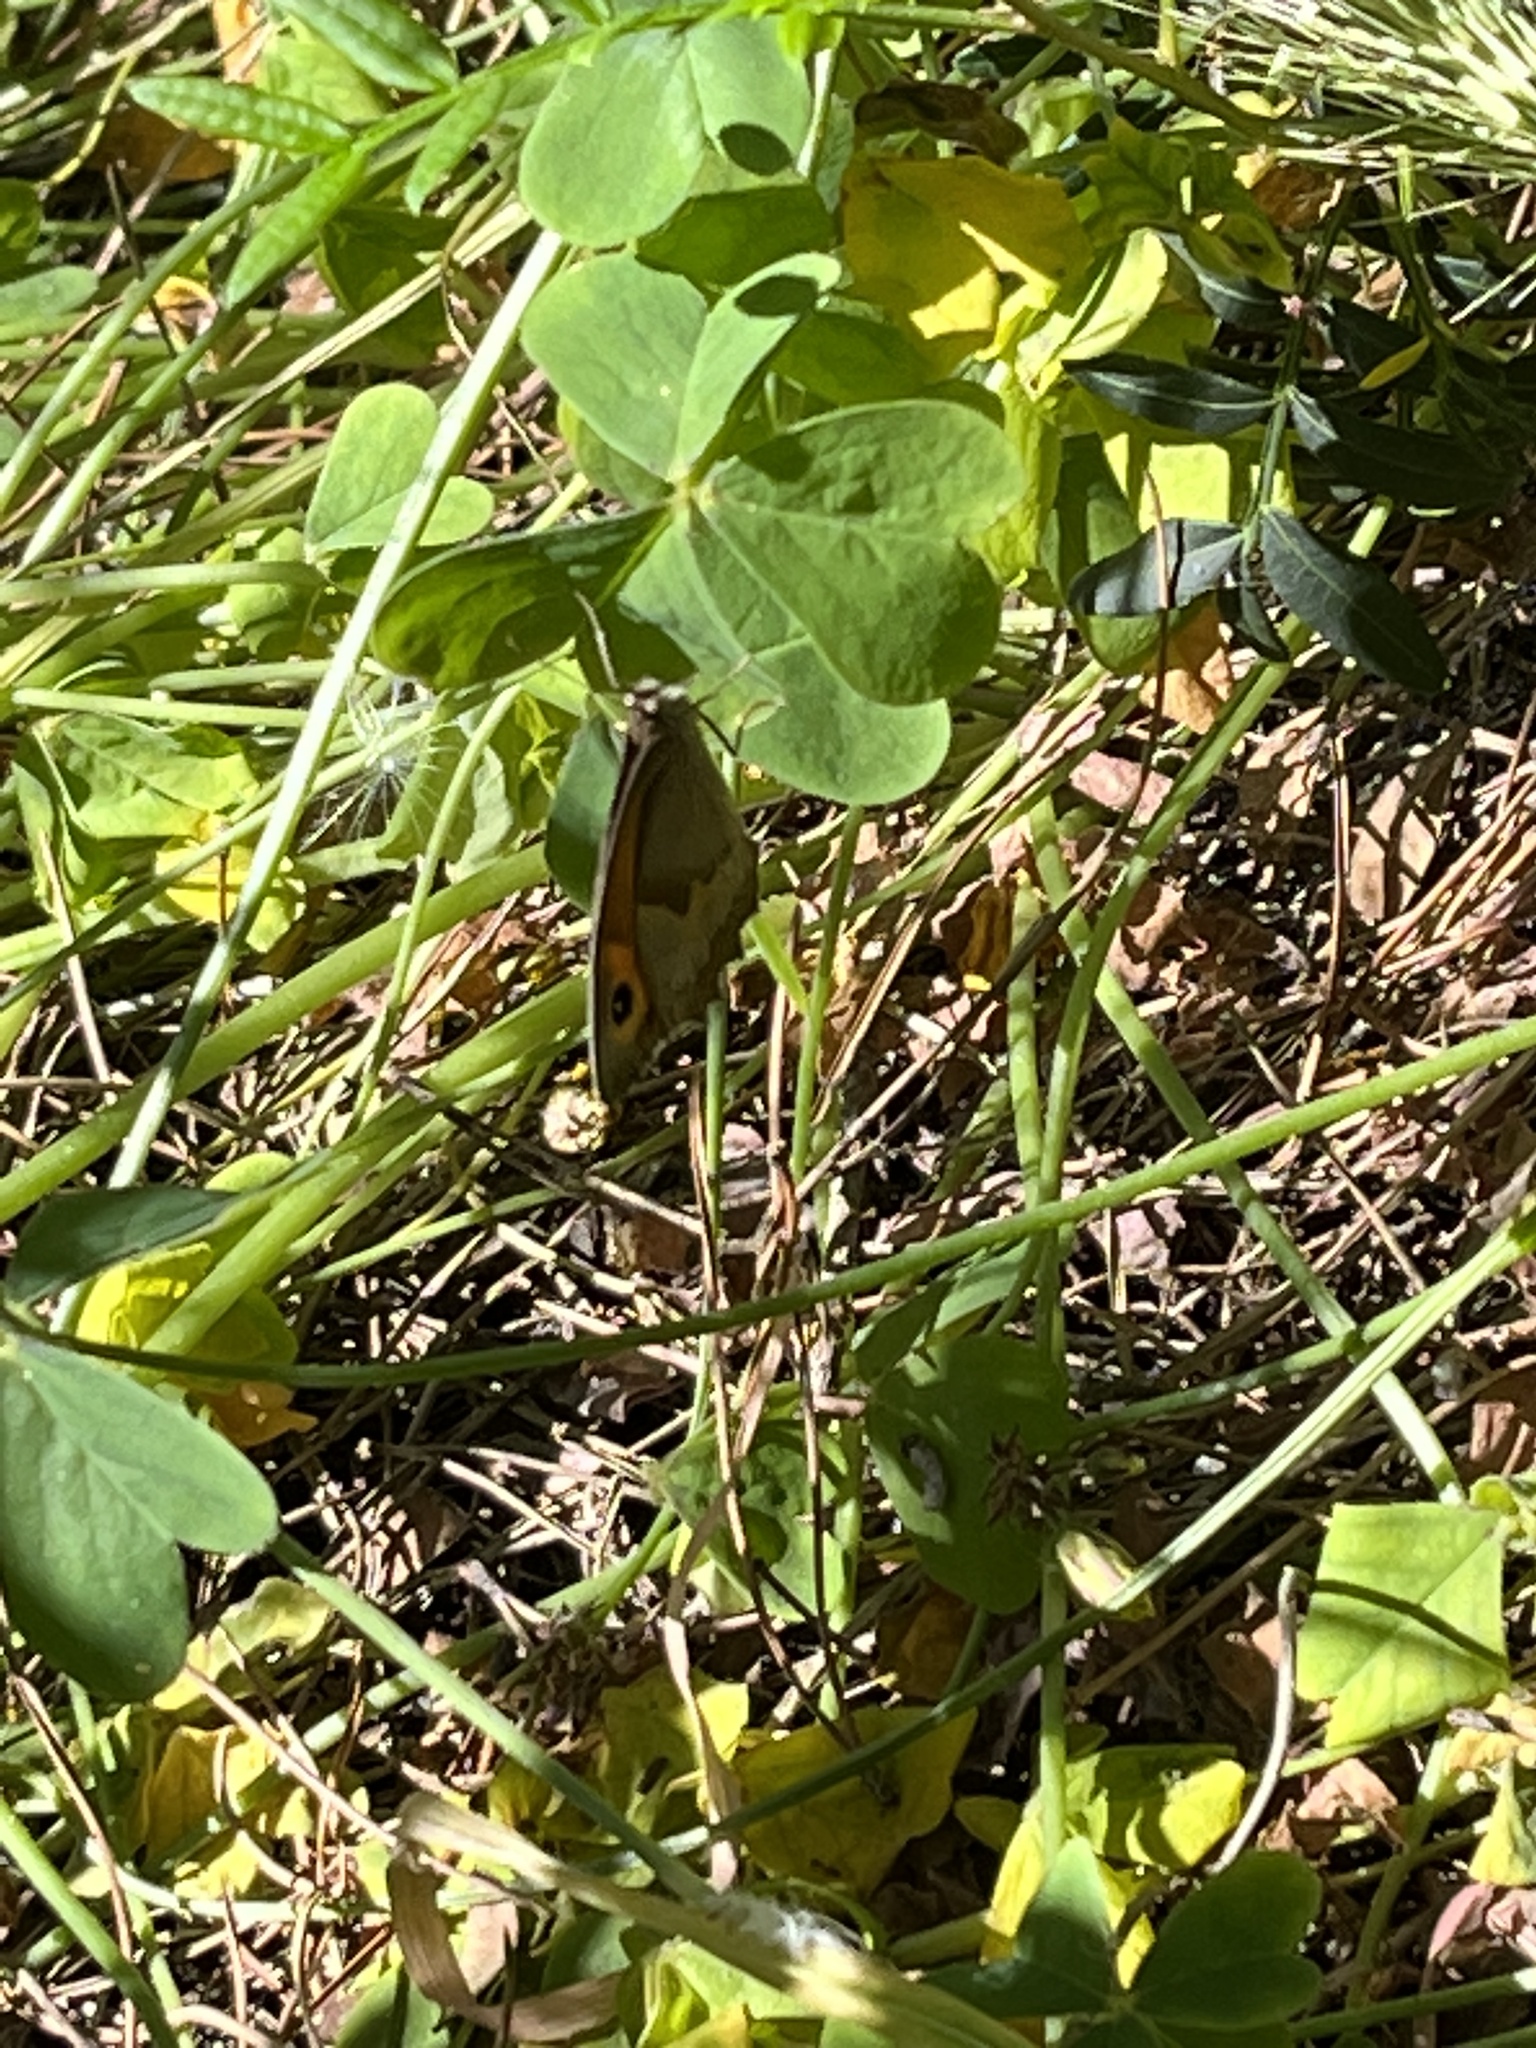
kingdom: Animalia
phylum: Arthropoda
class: Insecta
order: Lepidoptera
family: Nymphalidae
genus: Maniola
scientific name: Maniola jurtina
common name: Meadow brown
